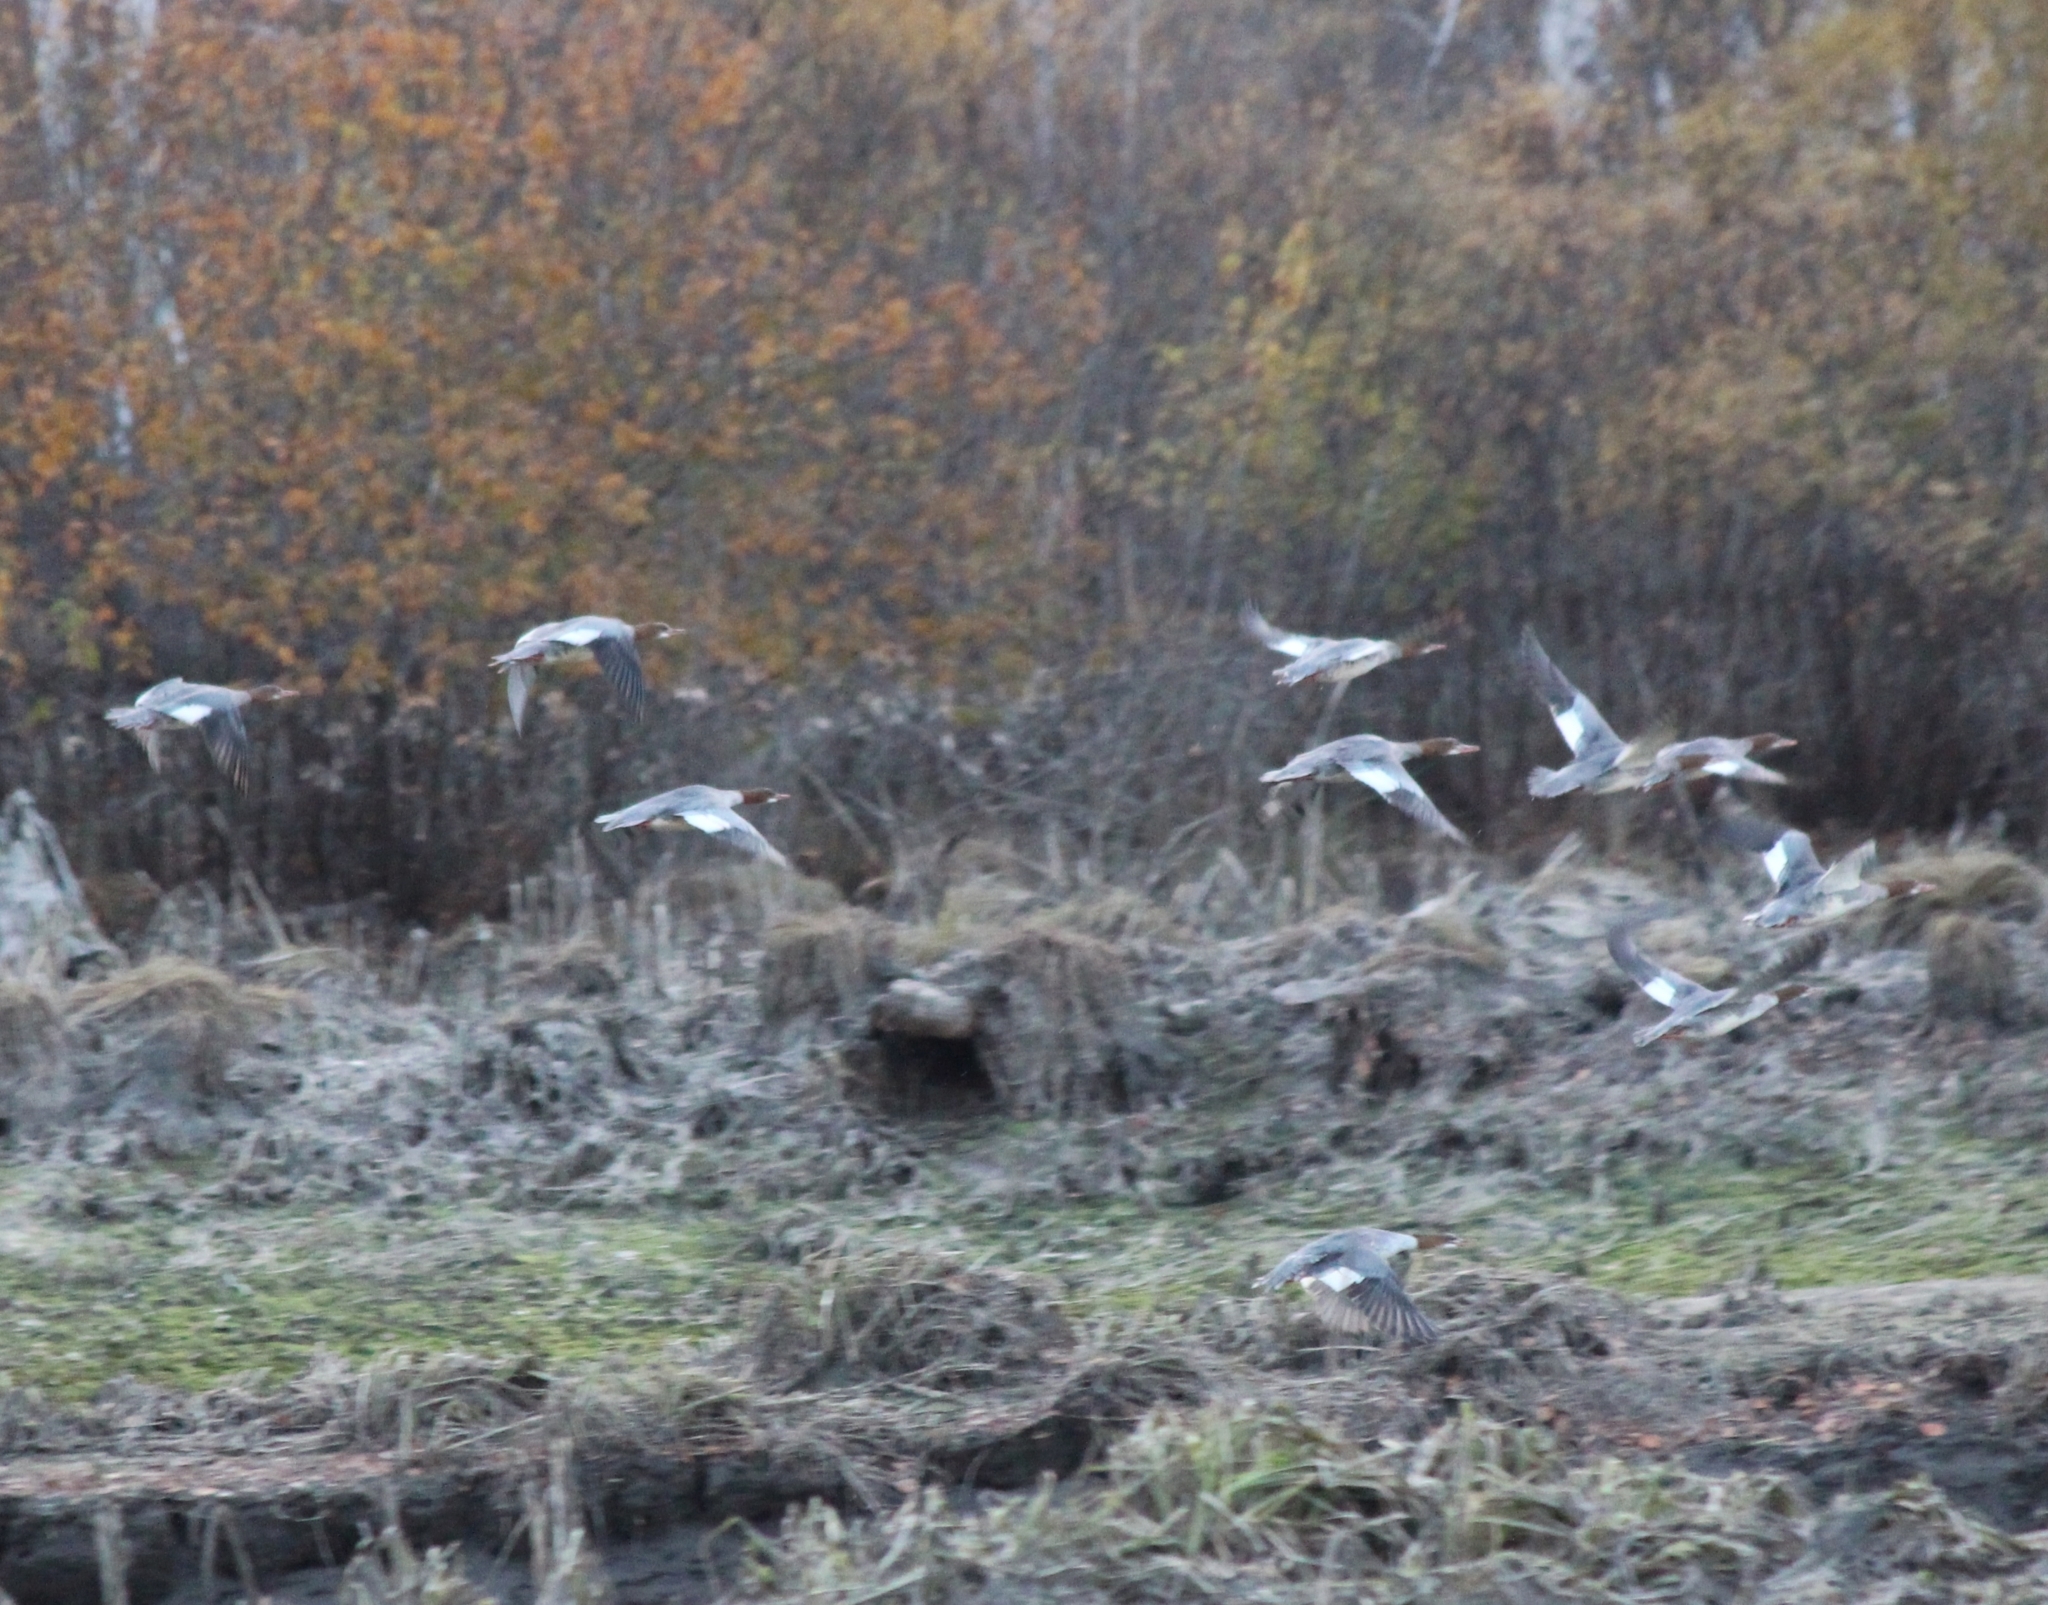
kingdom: Animalia
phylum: Chordata
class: Aves
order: Anseriformes
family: Anatidae
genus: Mergus
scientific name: Mergus merganser
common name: Common merganser
